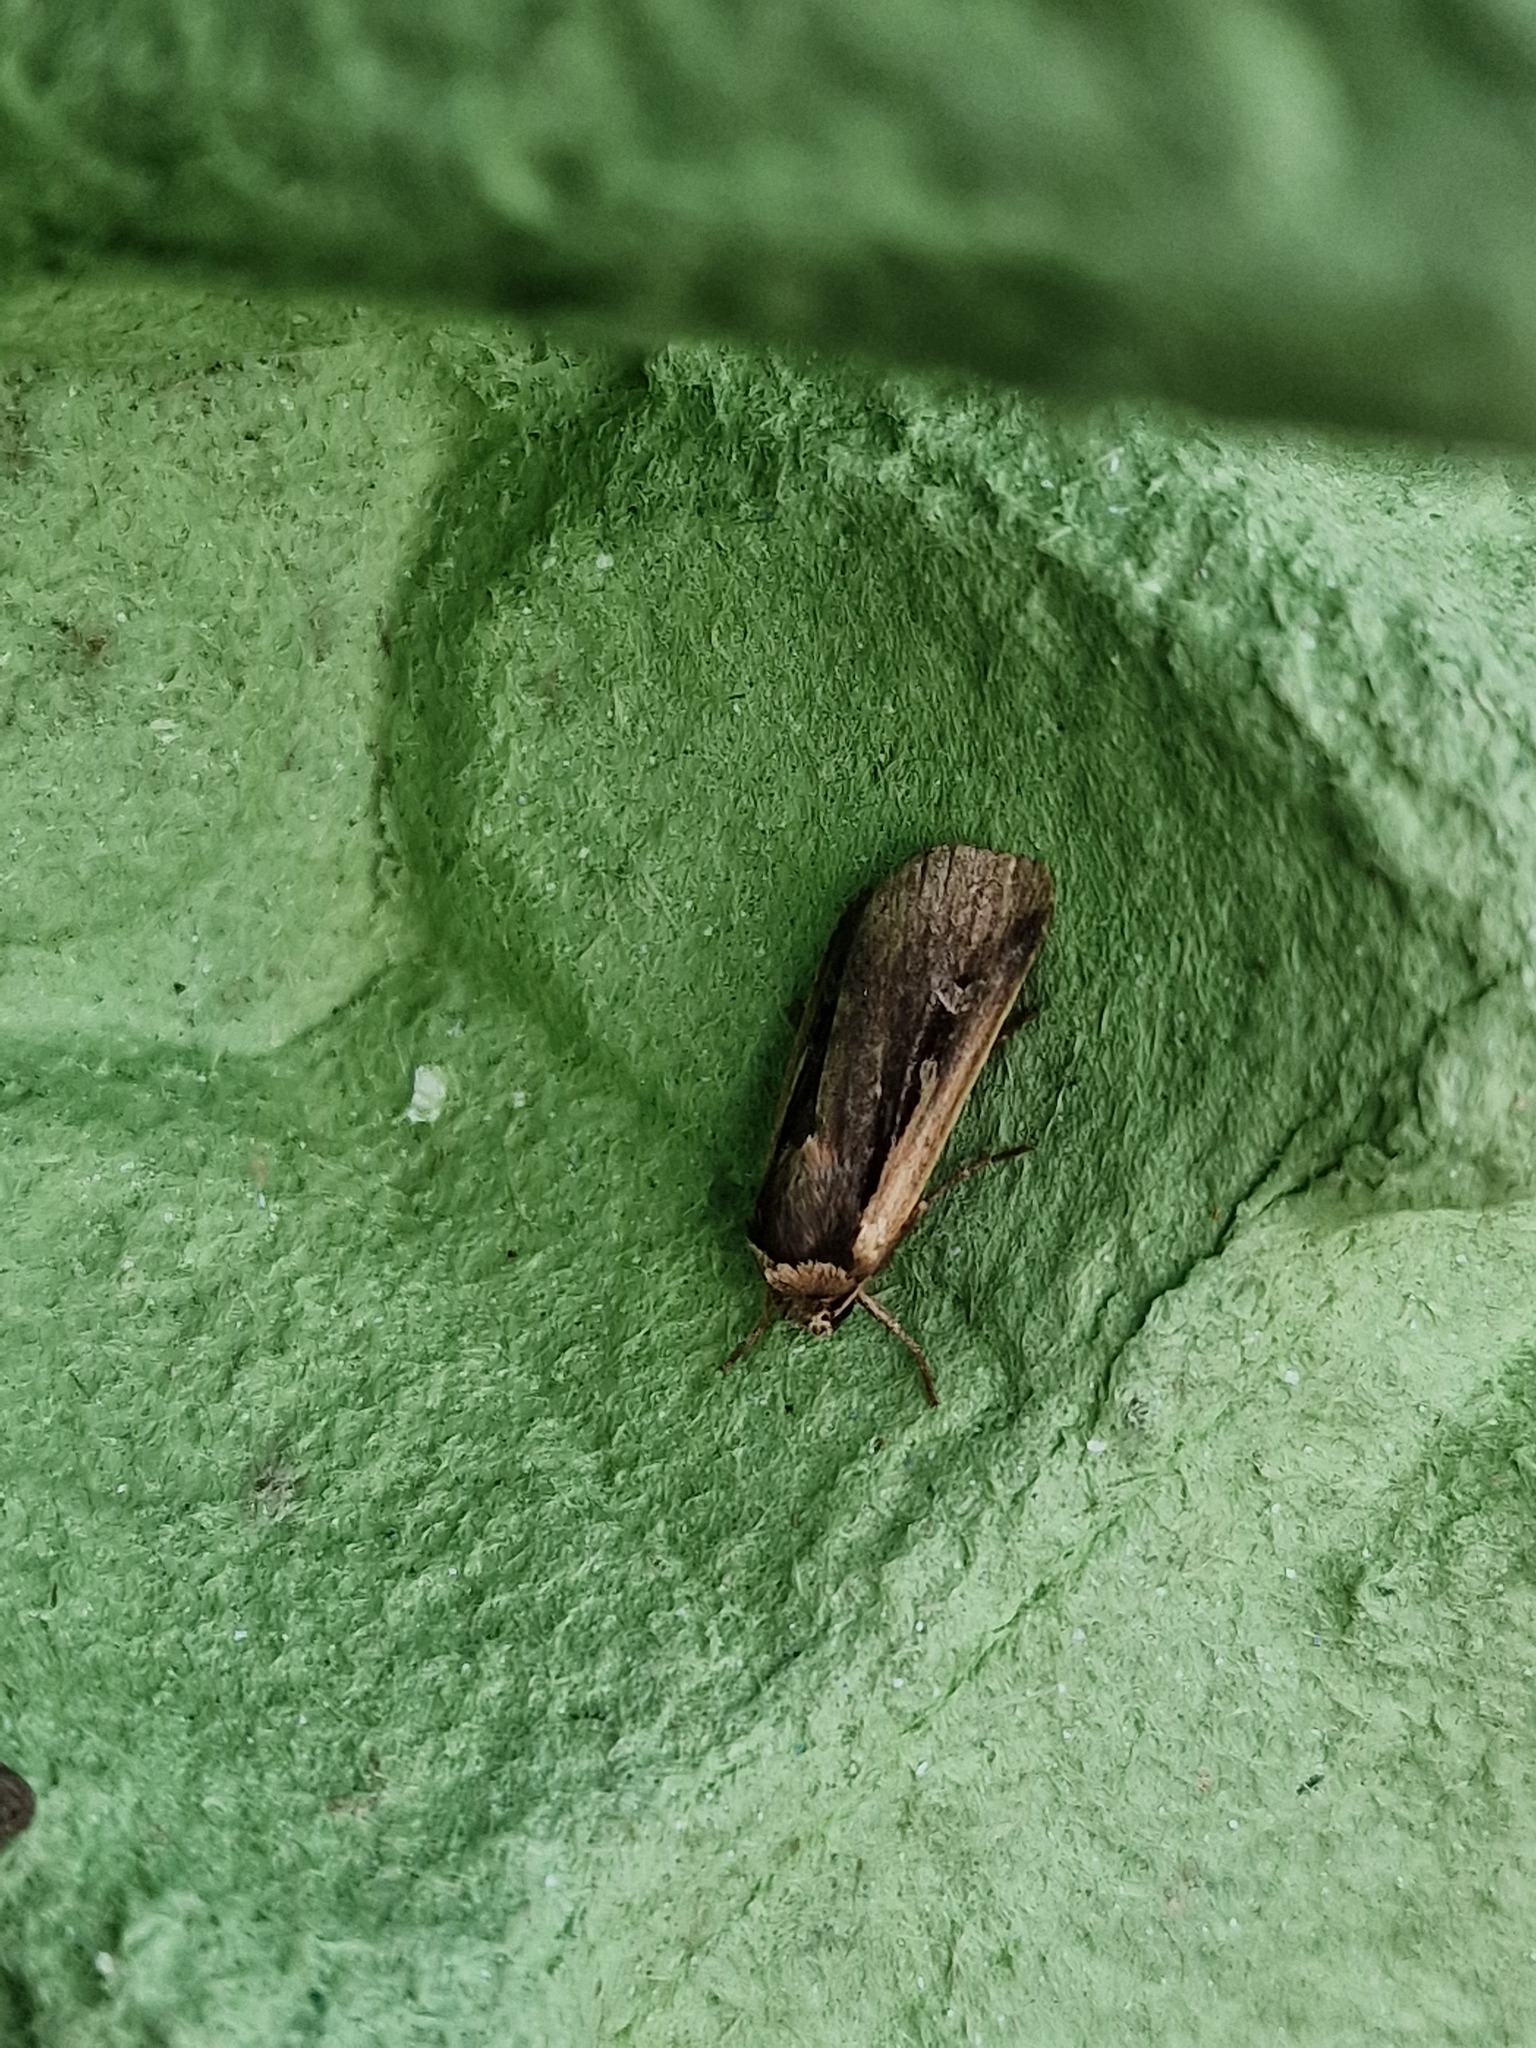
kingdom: Animalia
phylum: Arthropoda
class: Insecta
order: Lepidoptera
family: Noctuidae
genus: Ochropleura
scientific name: Ochropleura plecta
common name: Flame shoulder
